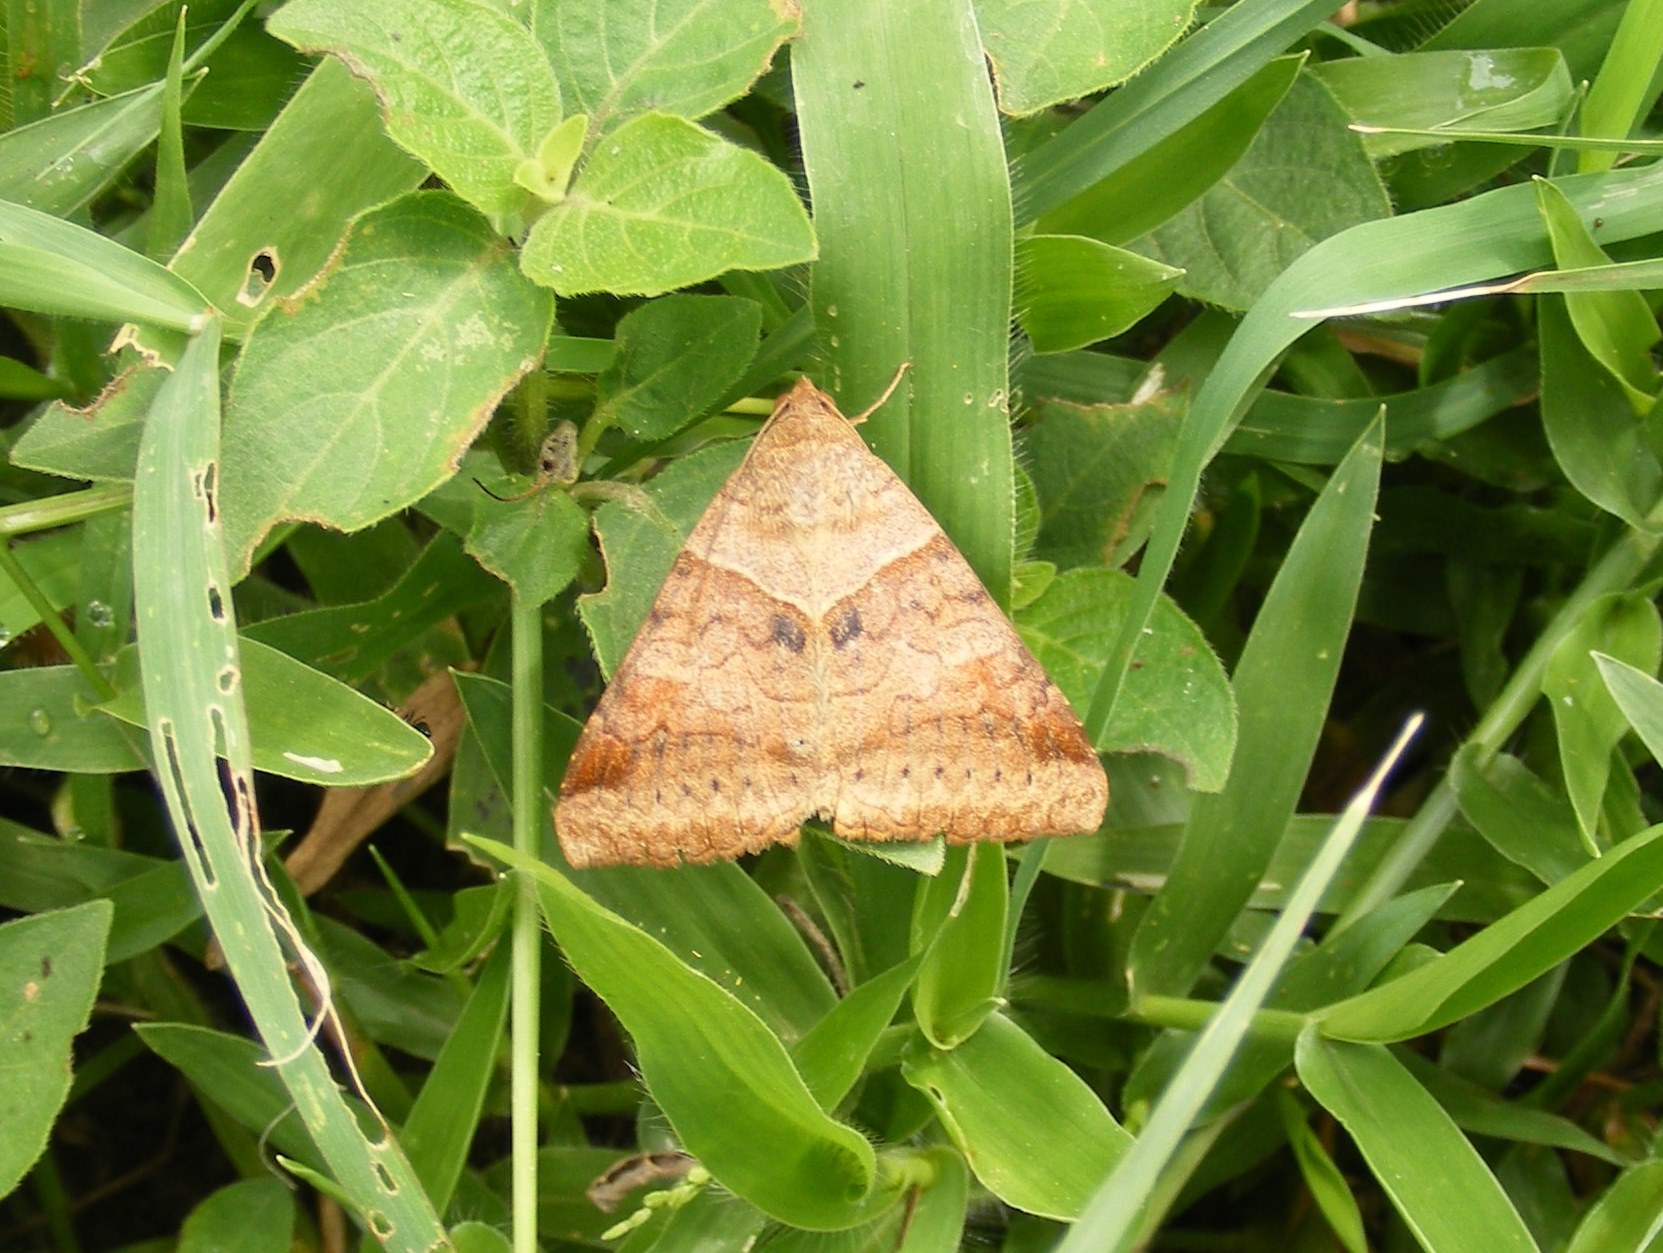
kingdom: Animalia
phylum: Arthropoda
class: Insecta
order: Lepidoptera
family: Erebidae
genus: Mocis
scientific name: Mocis undata
